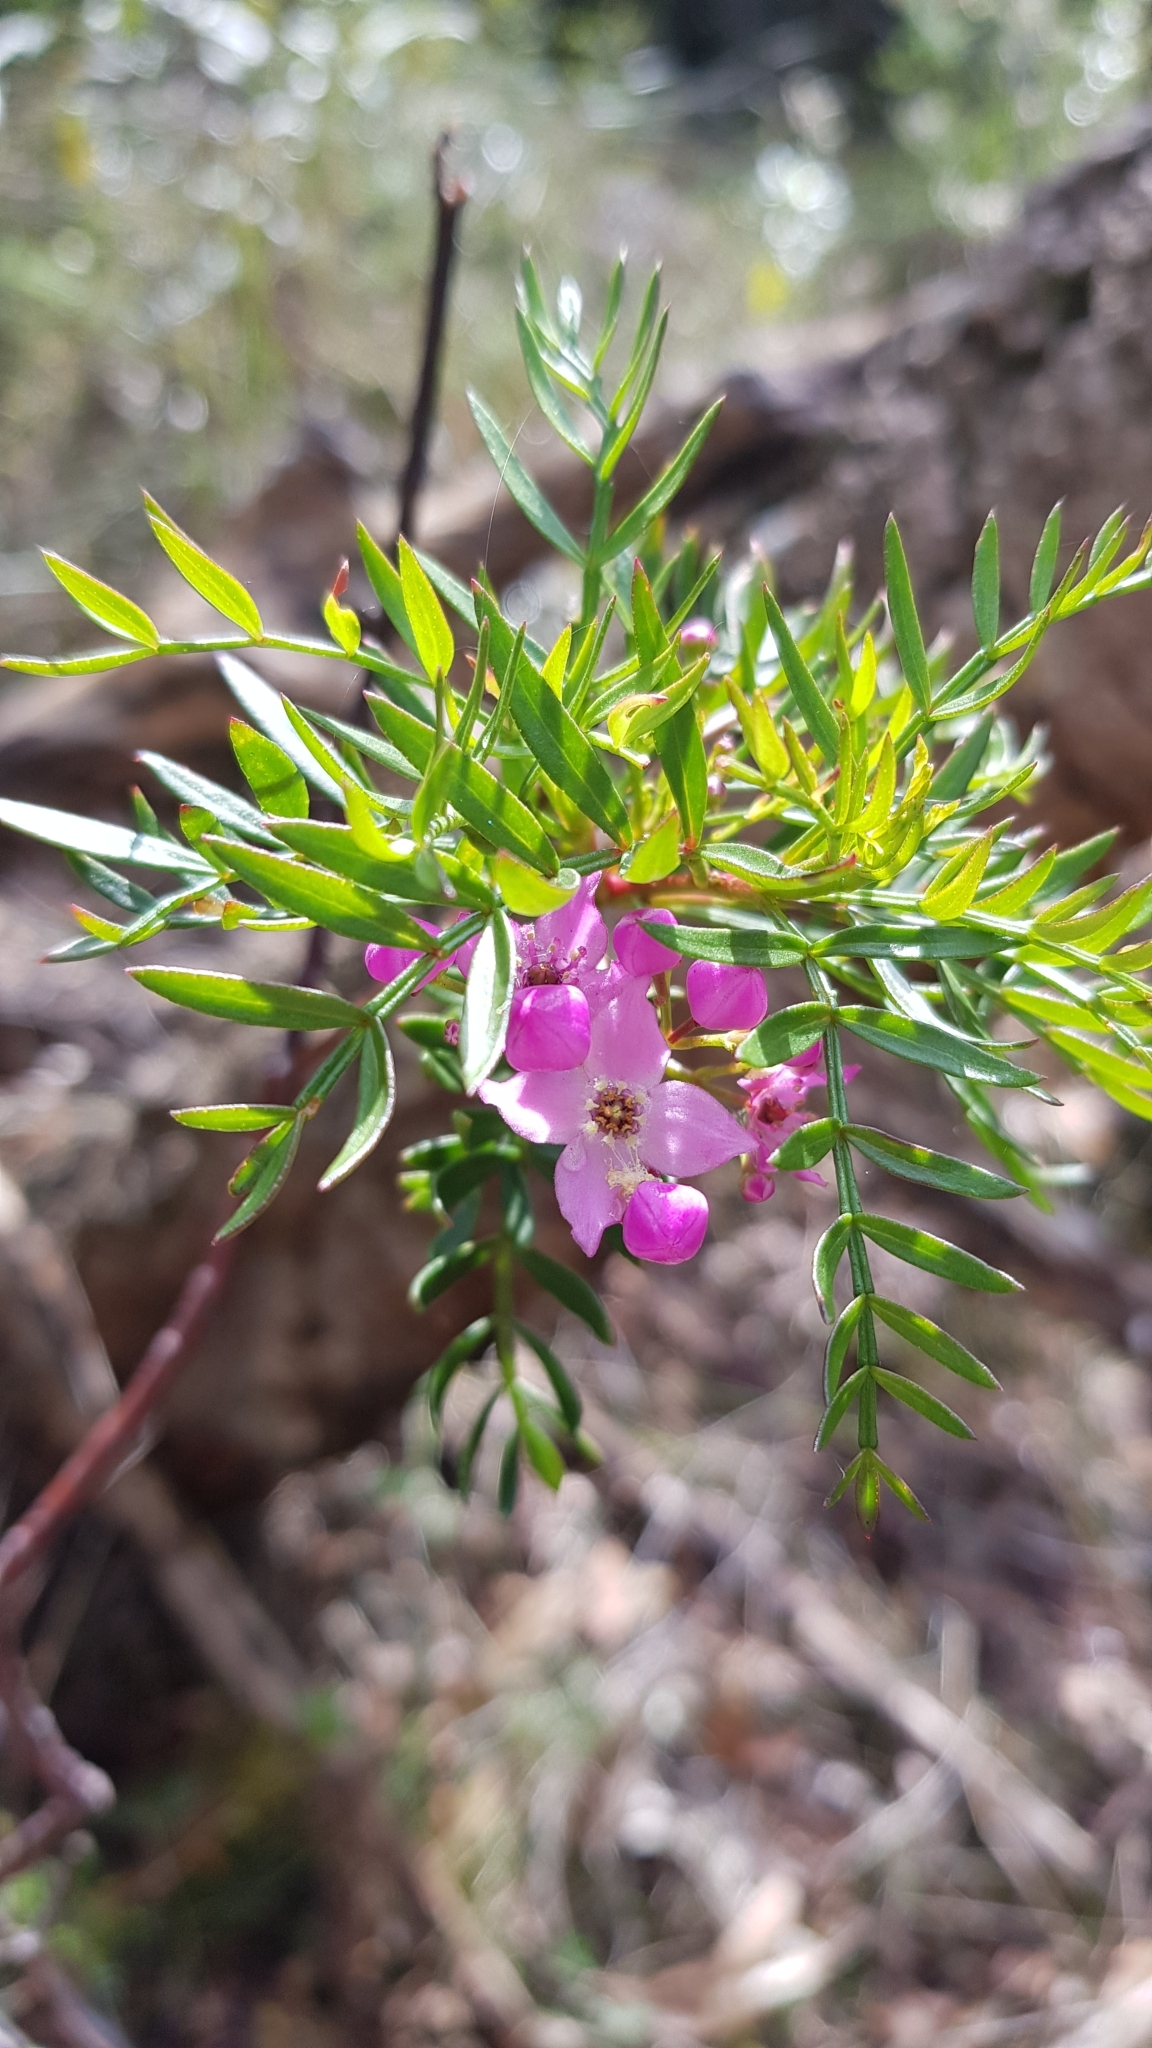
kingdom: Plantae
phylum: Tracheophyta
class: Magnoliopsida
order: Sapindales
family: Rutaceae
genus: Boronia
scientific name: Boronia pinnata
